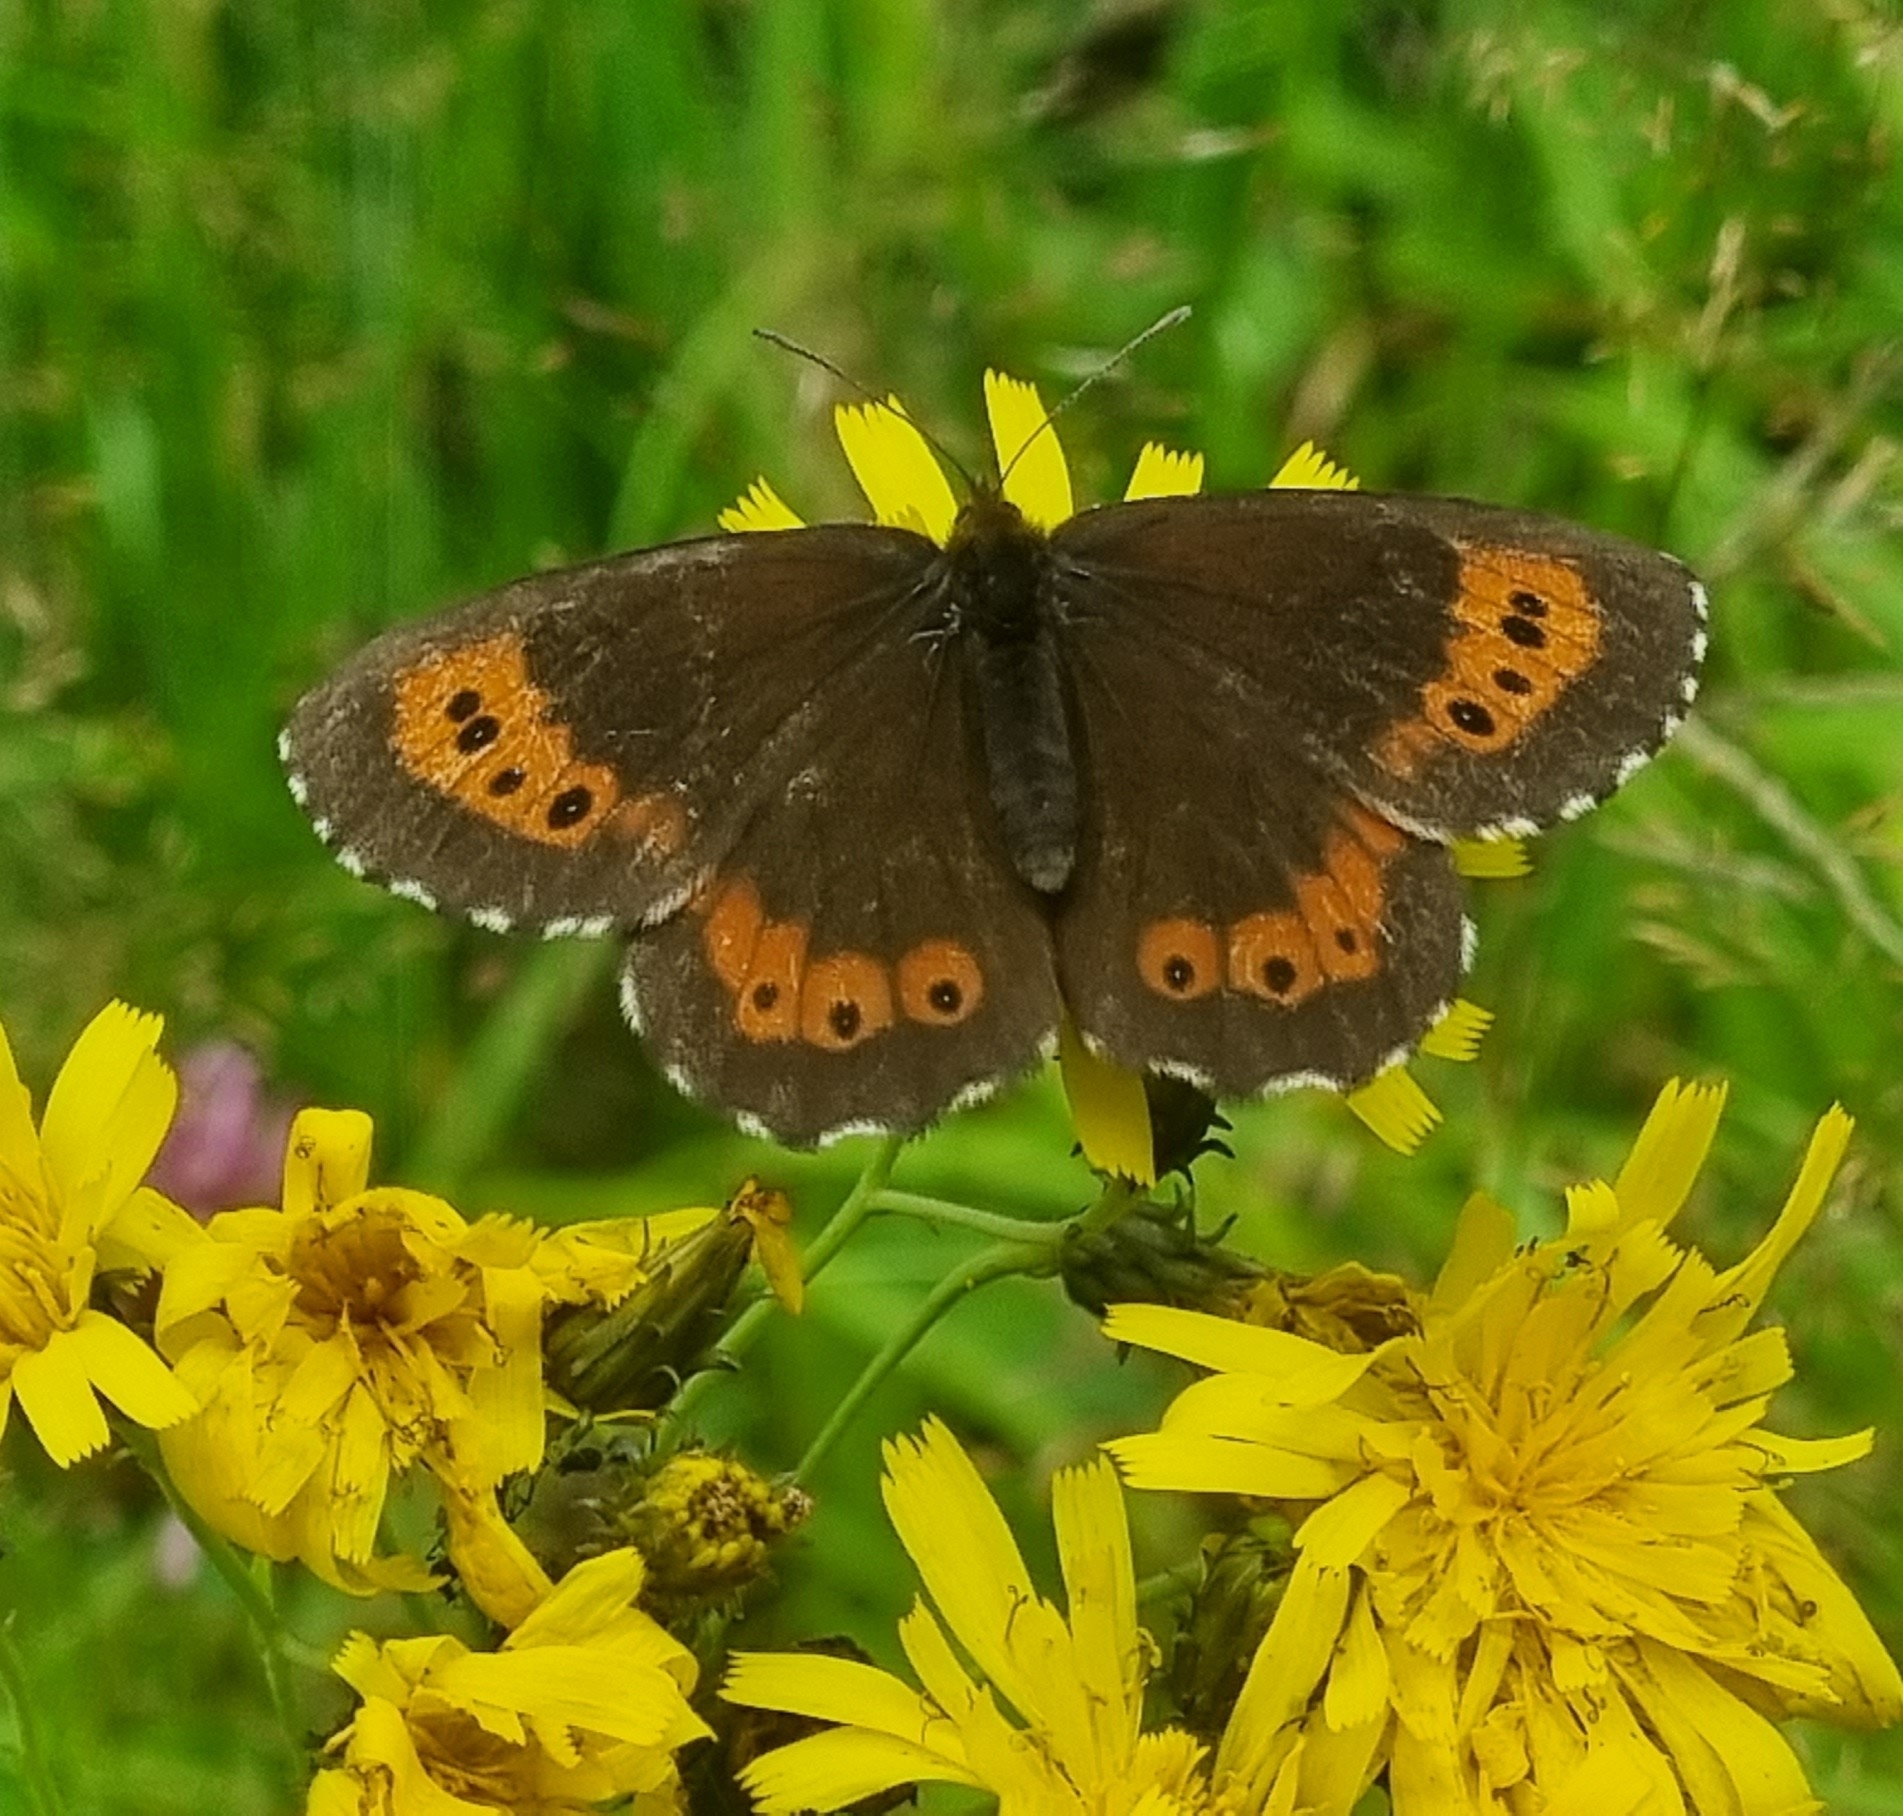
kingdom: Animalia
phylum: Arthropoda
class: Insecta
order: Lepidoptera
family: Nymphalidae
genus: Erebia
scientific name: Erebia ligea
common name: Arran brown
